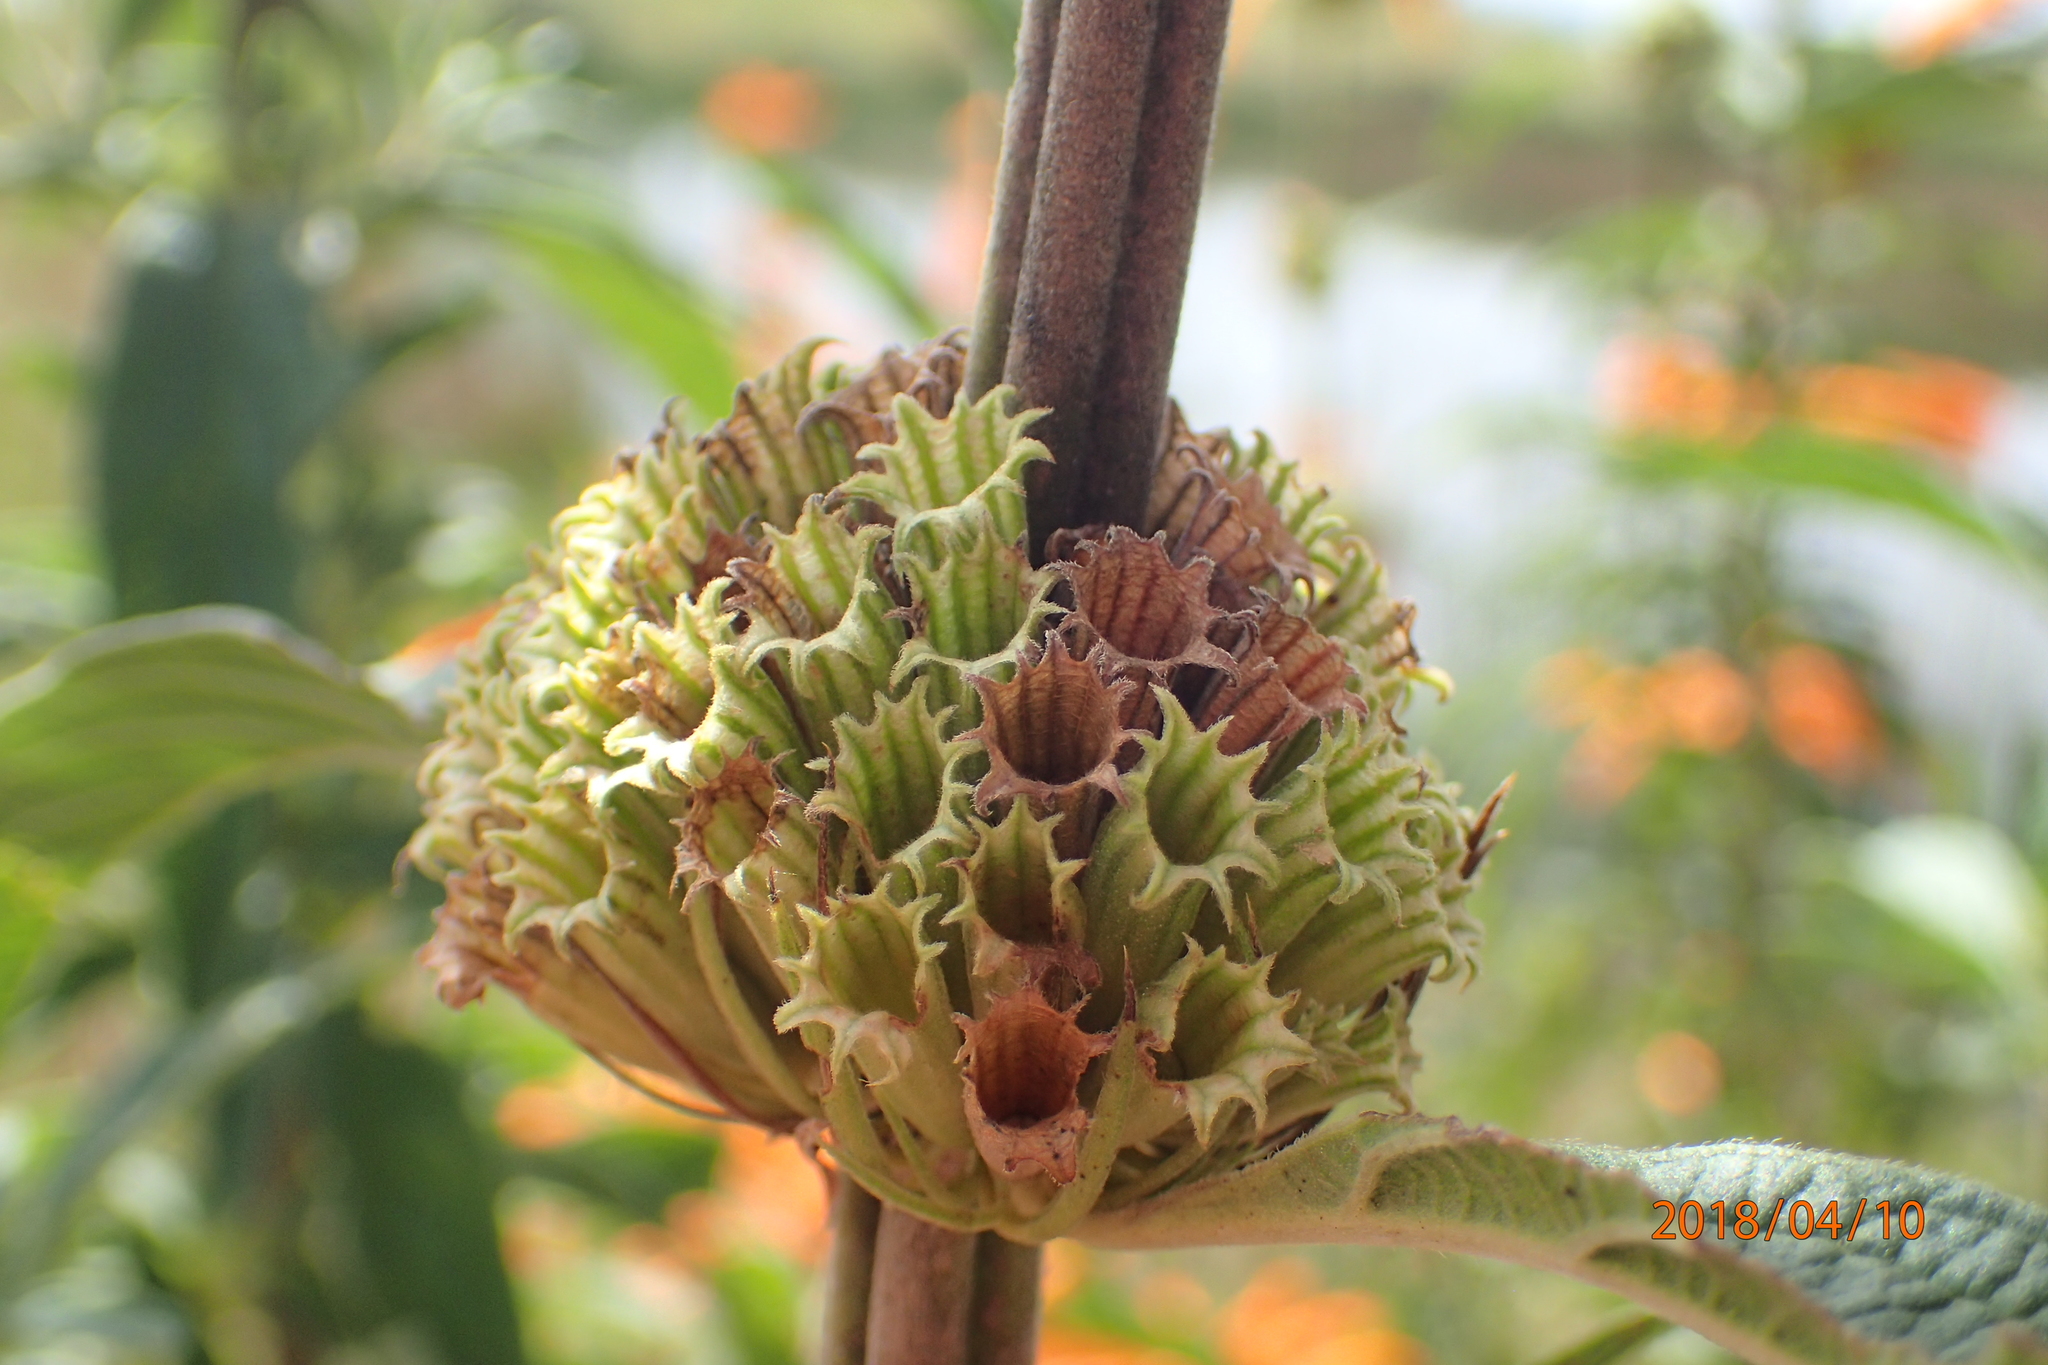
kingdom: Plantae
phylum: Tracheophyta
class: Magnoliopsida
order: Lamiales
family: Lamiaceae
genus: Leonotis
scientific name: Leonotis leonurus
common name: Lion's ear
